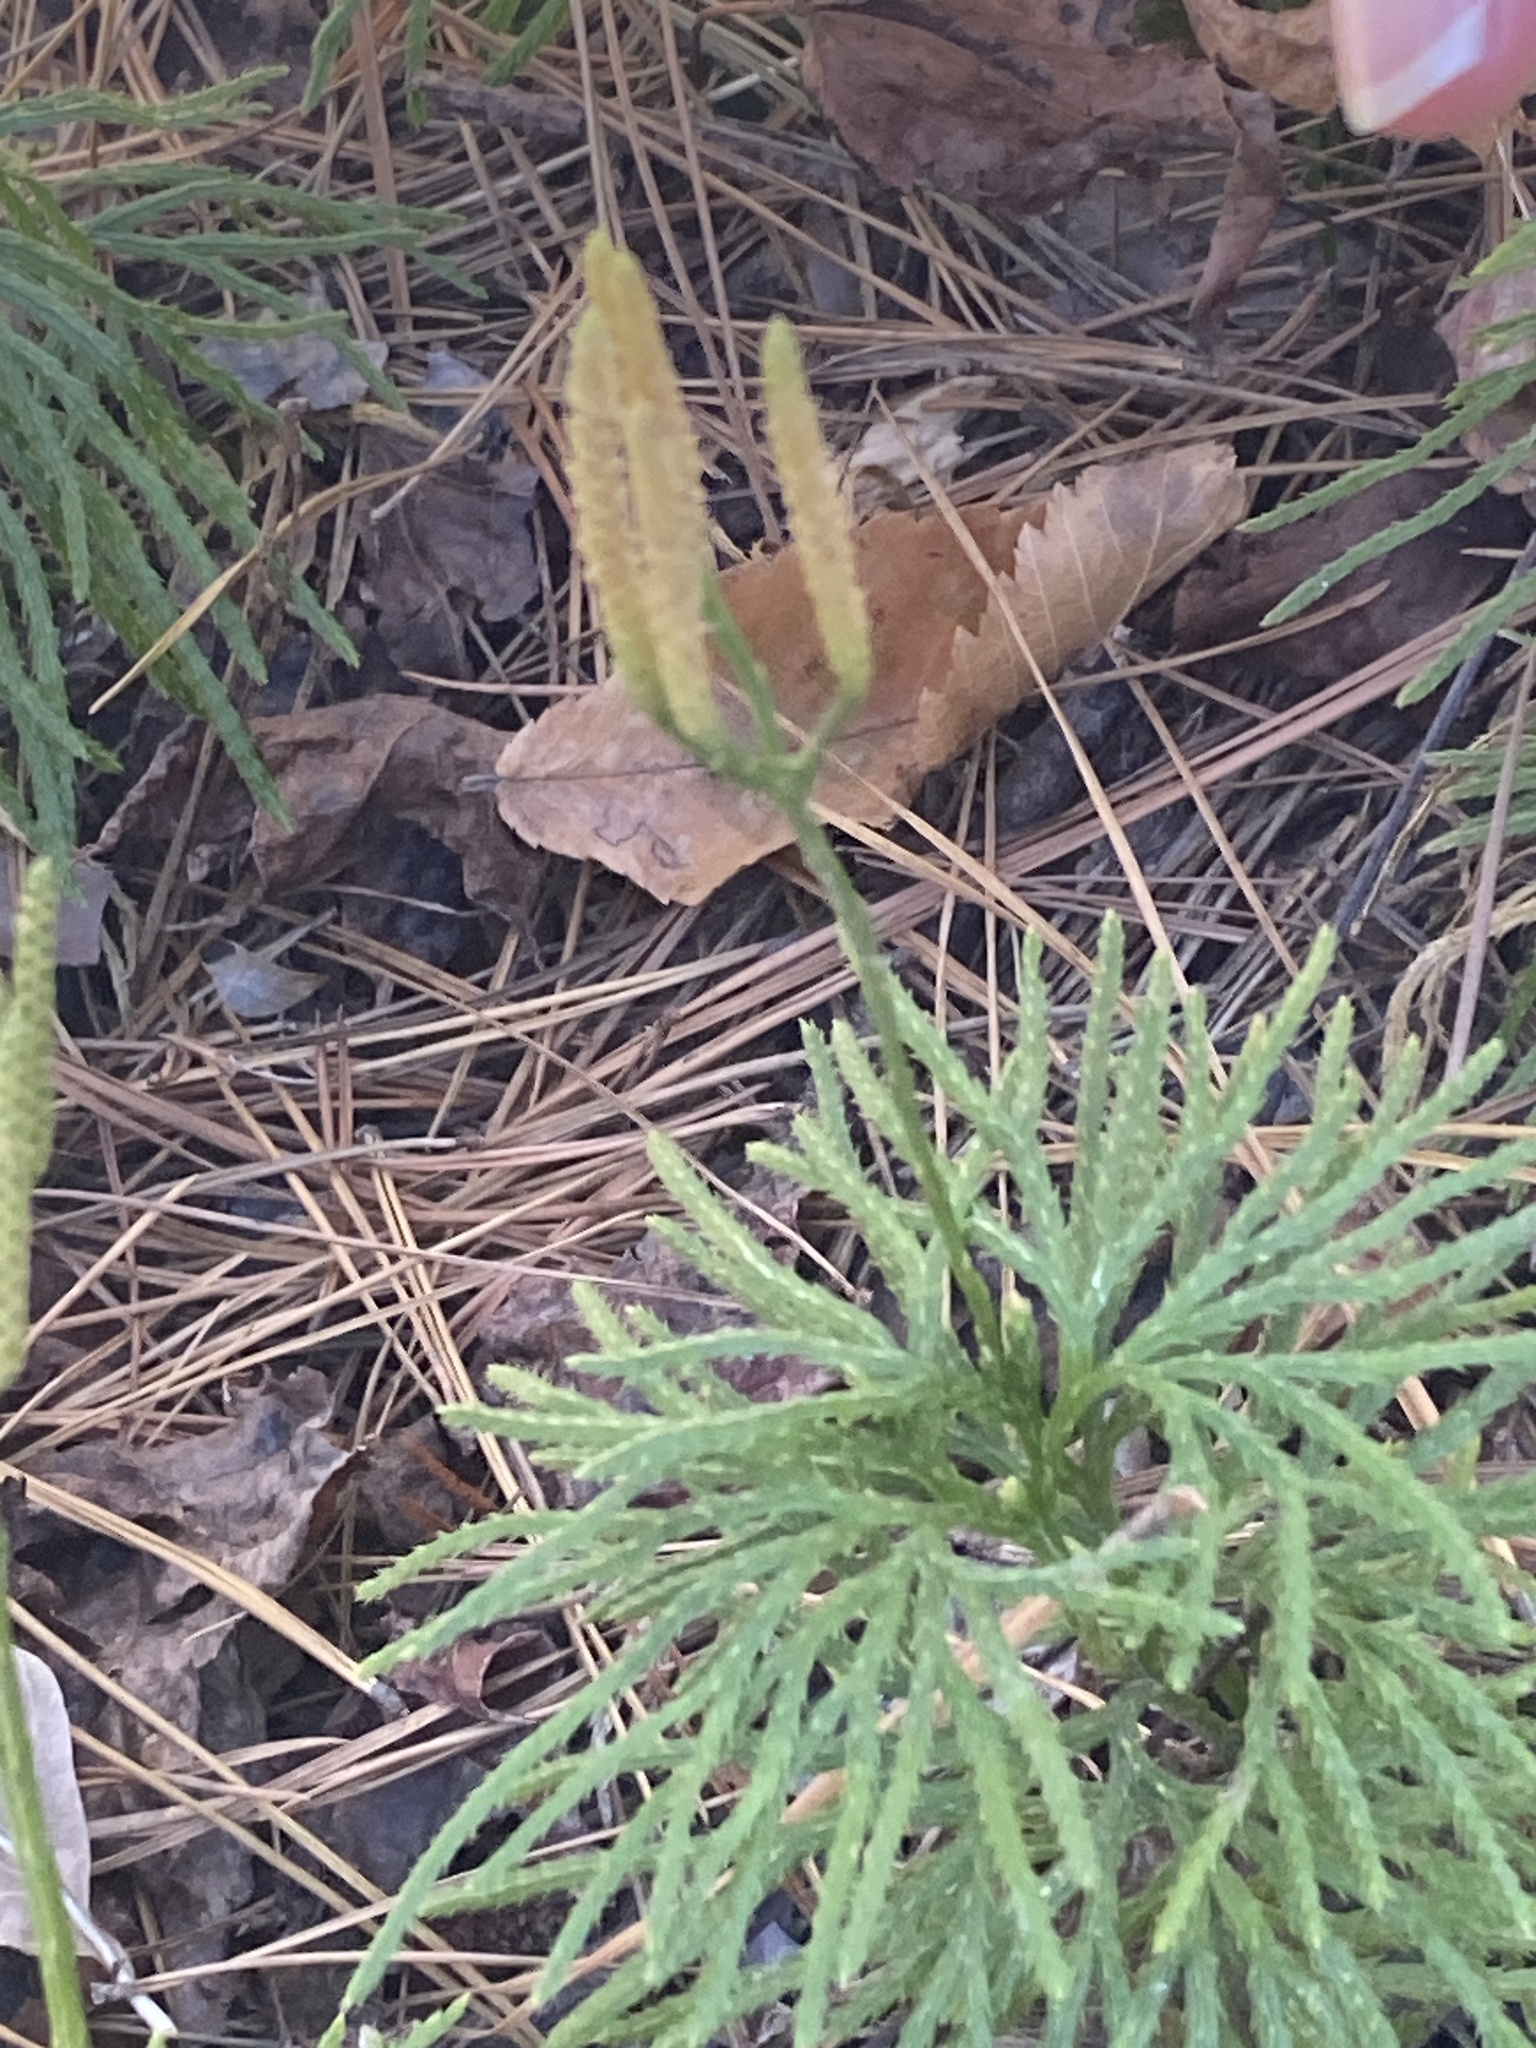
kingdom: Plantae
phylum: Tracheophyta
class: Lycopodiopsida
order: Lycopodiales
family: Lycopodiaceae
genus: Diphasiastrum
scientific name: Diphasiastrum digitatum
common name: Southern running-pine
